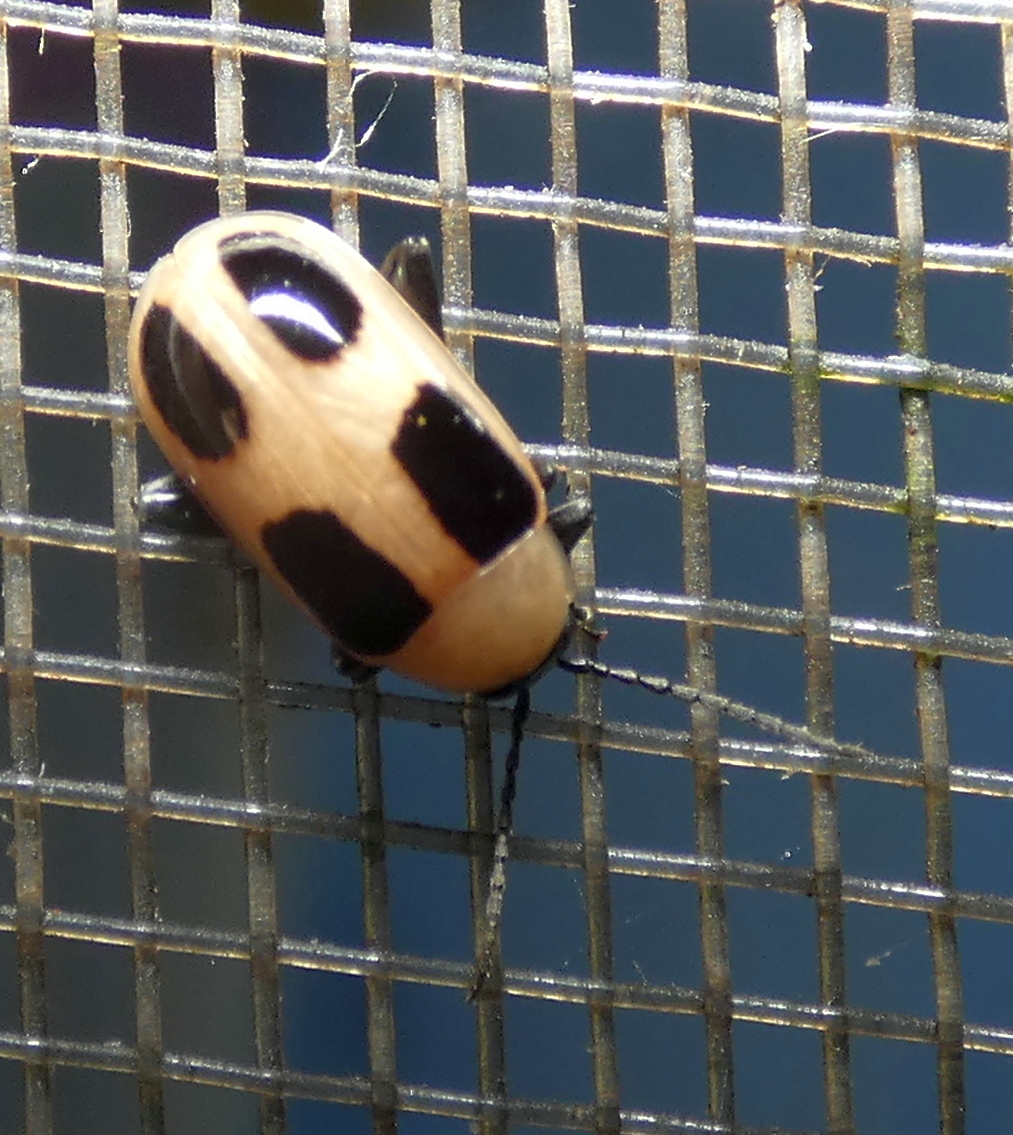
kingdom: Animalia
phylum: Arthropoda
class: Insecta
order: Coleoptera
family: Chrysomelidae
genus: Lacpatica
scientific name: Lacpatica
